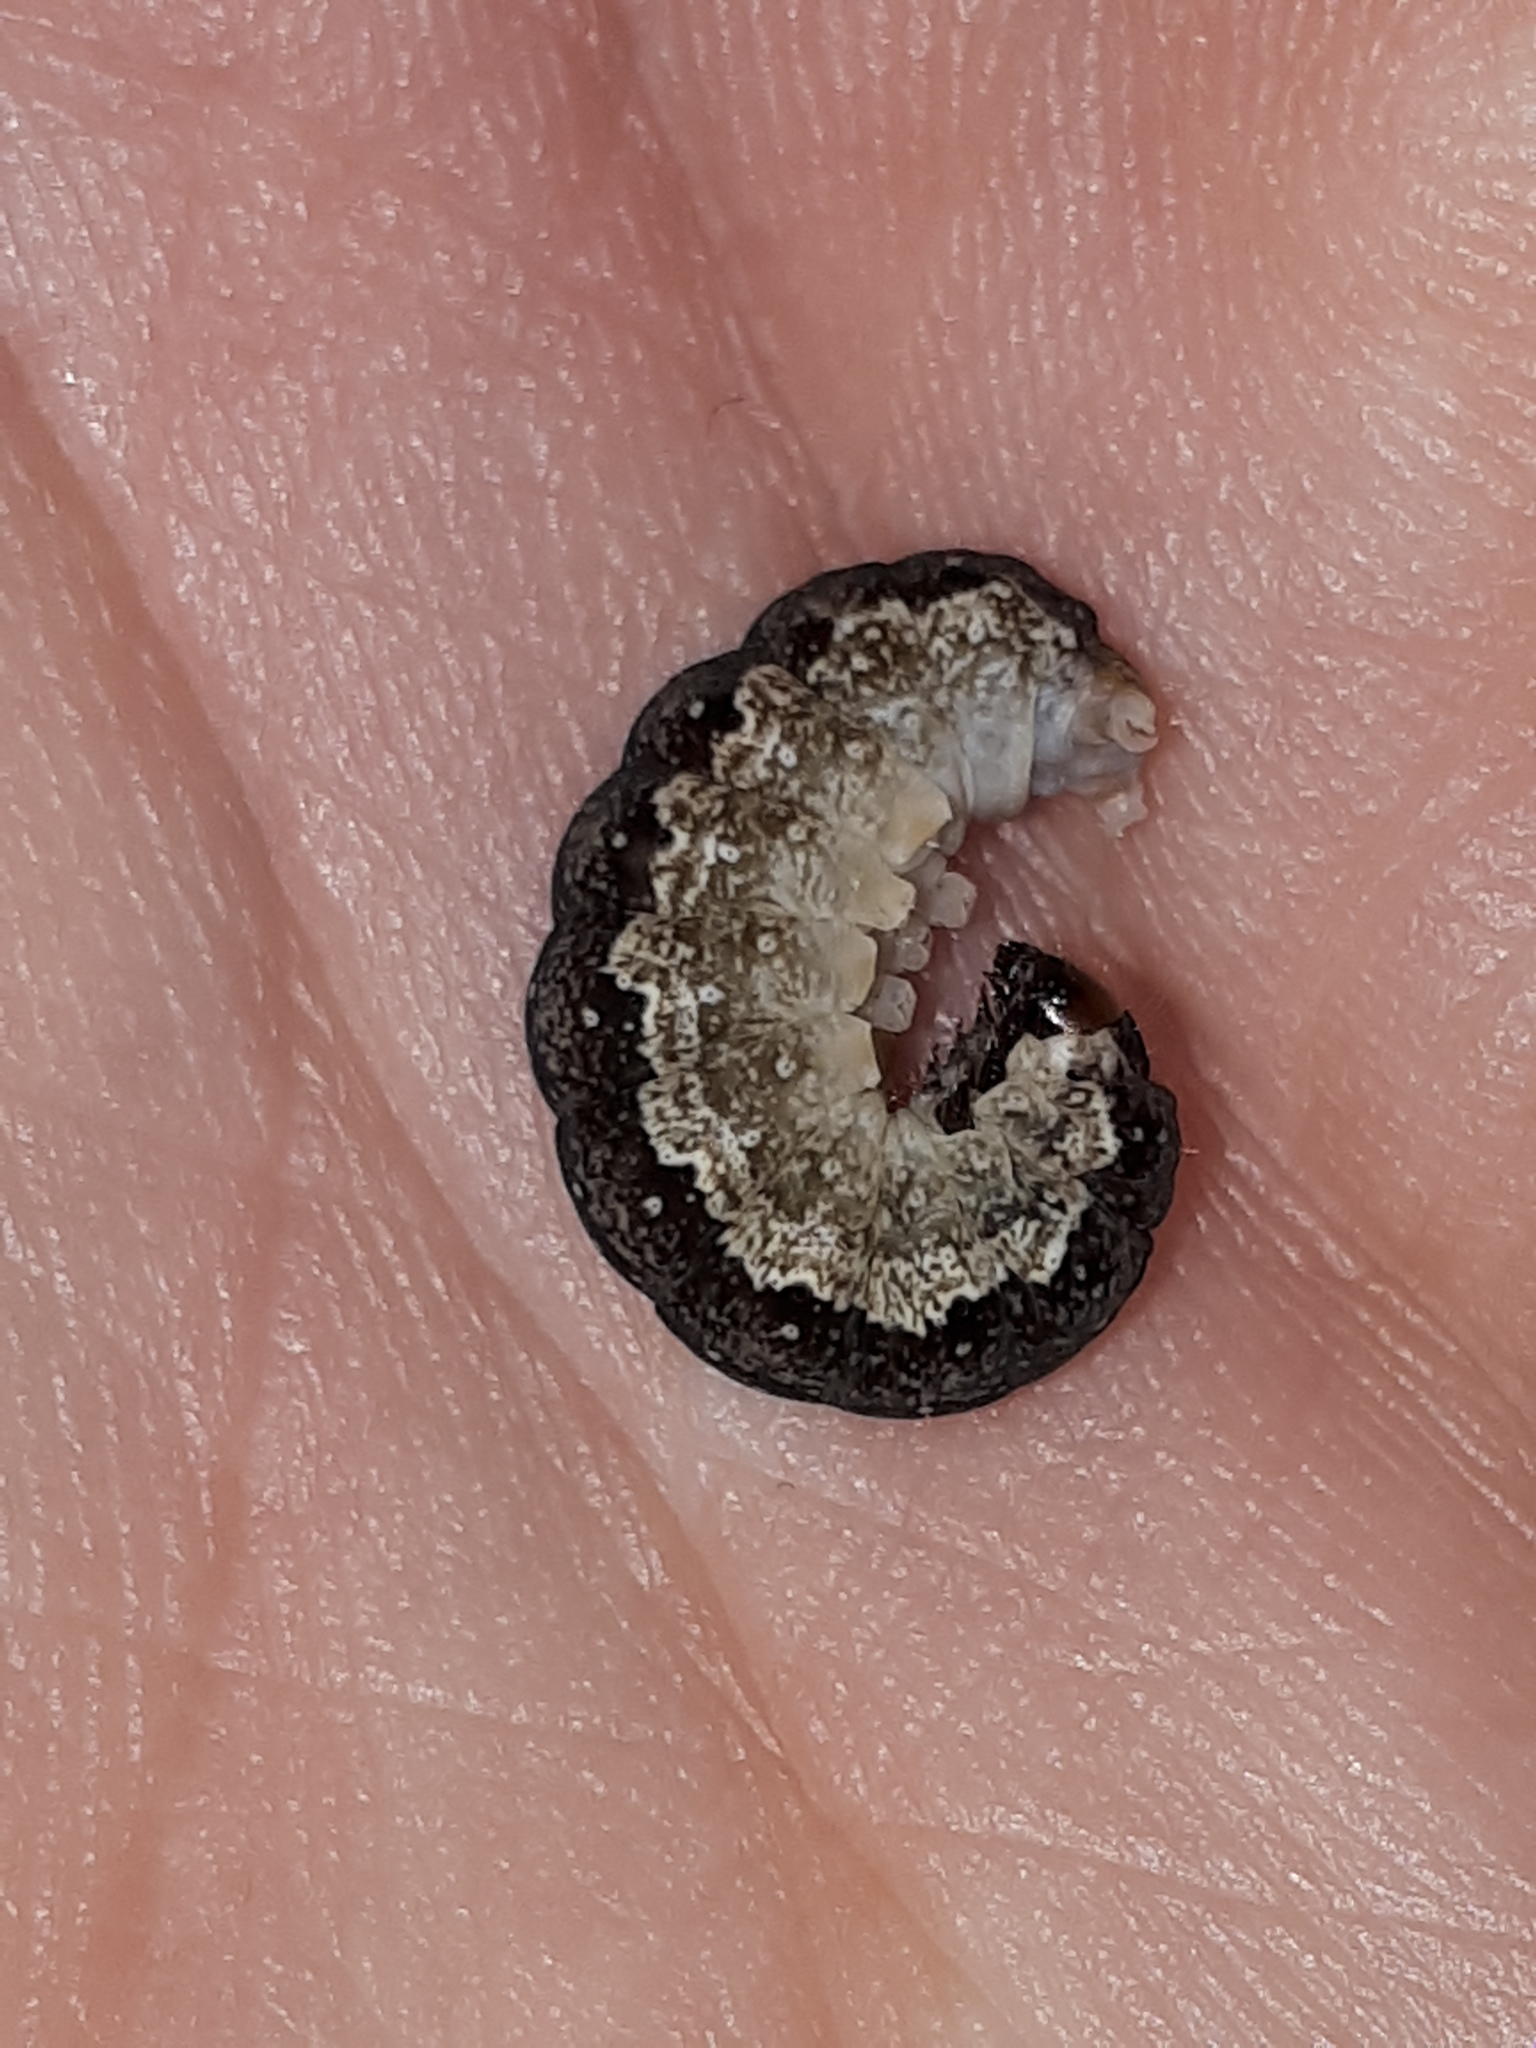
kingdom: Animalia
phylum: Arthropoda
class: Insecta
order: Lepidoptera
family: Noctuidae
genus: Tiliacea
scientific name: Tiliacea citrago
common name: Orange sallow
